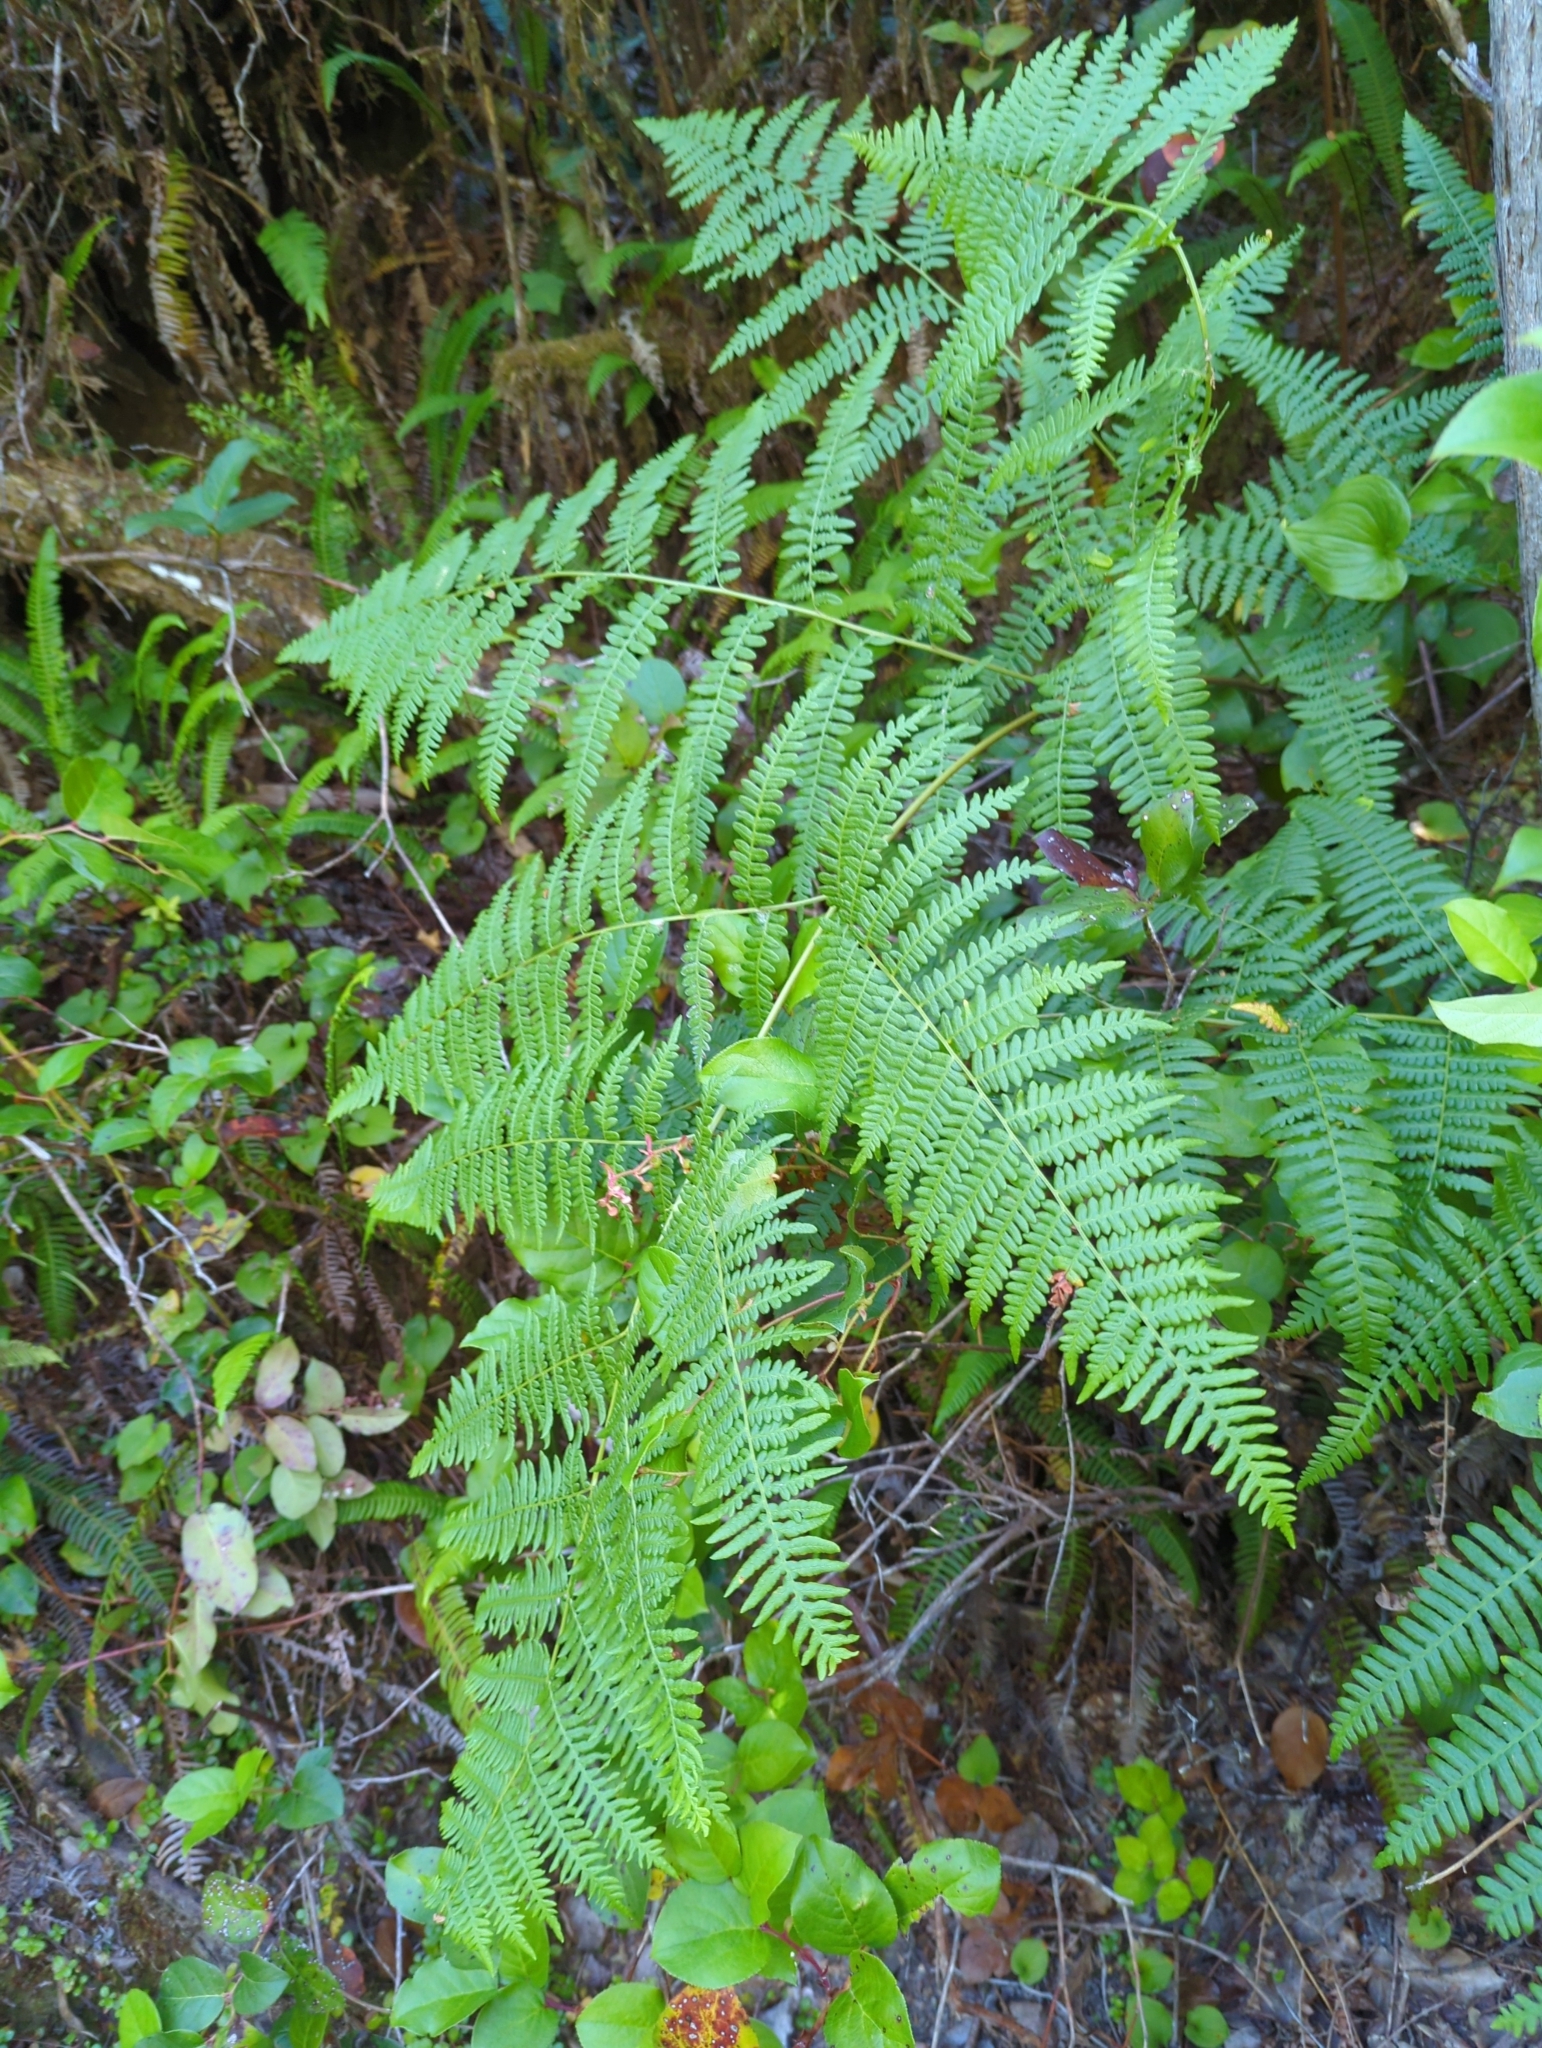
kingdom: Plantae
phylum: Tracheophyta
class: Polypodiopsida
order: Polypodiales
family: Dennstaedtiaceae
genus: Pteridium
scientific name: Pteridium aquilinum
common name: Bracken
